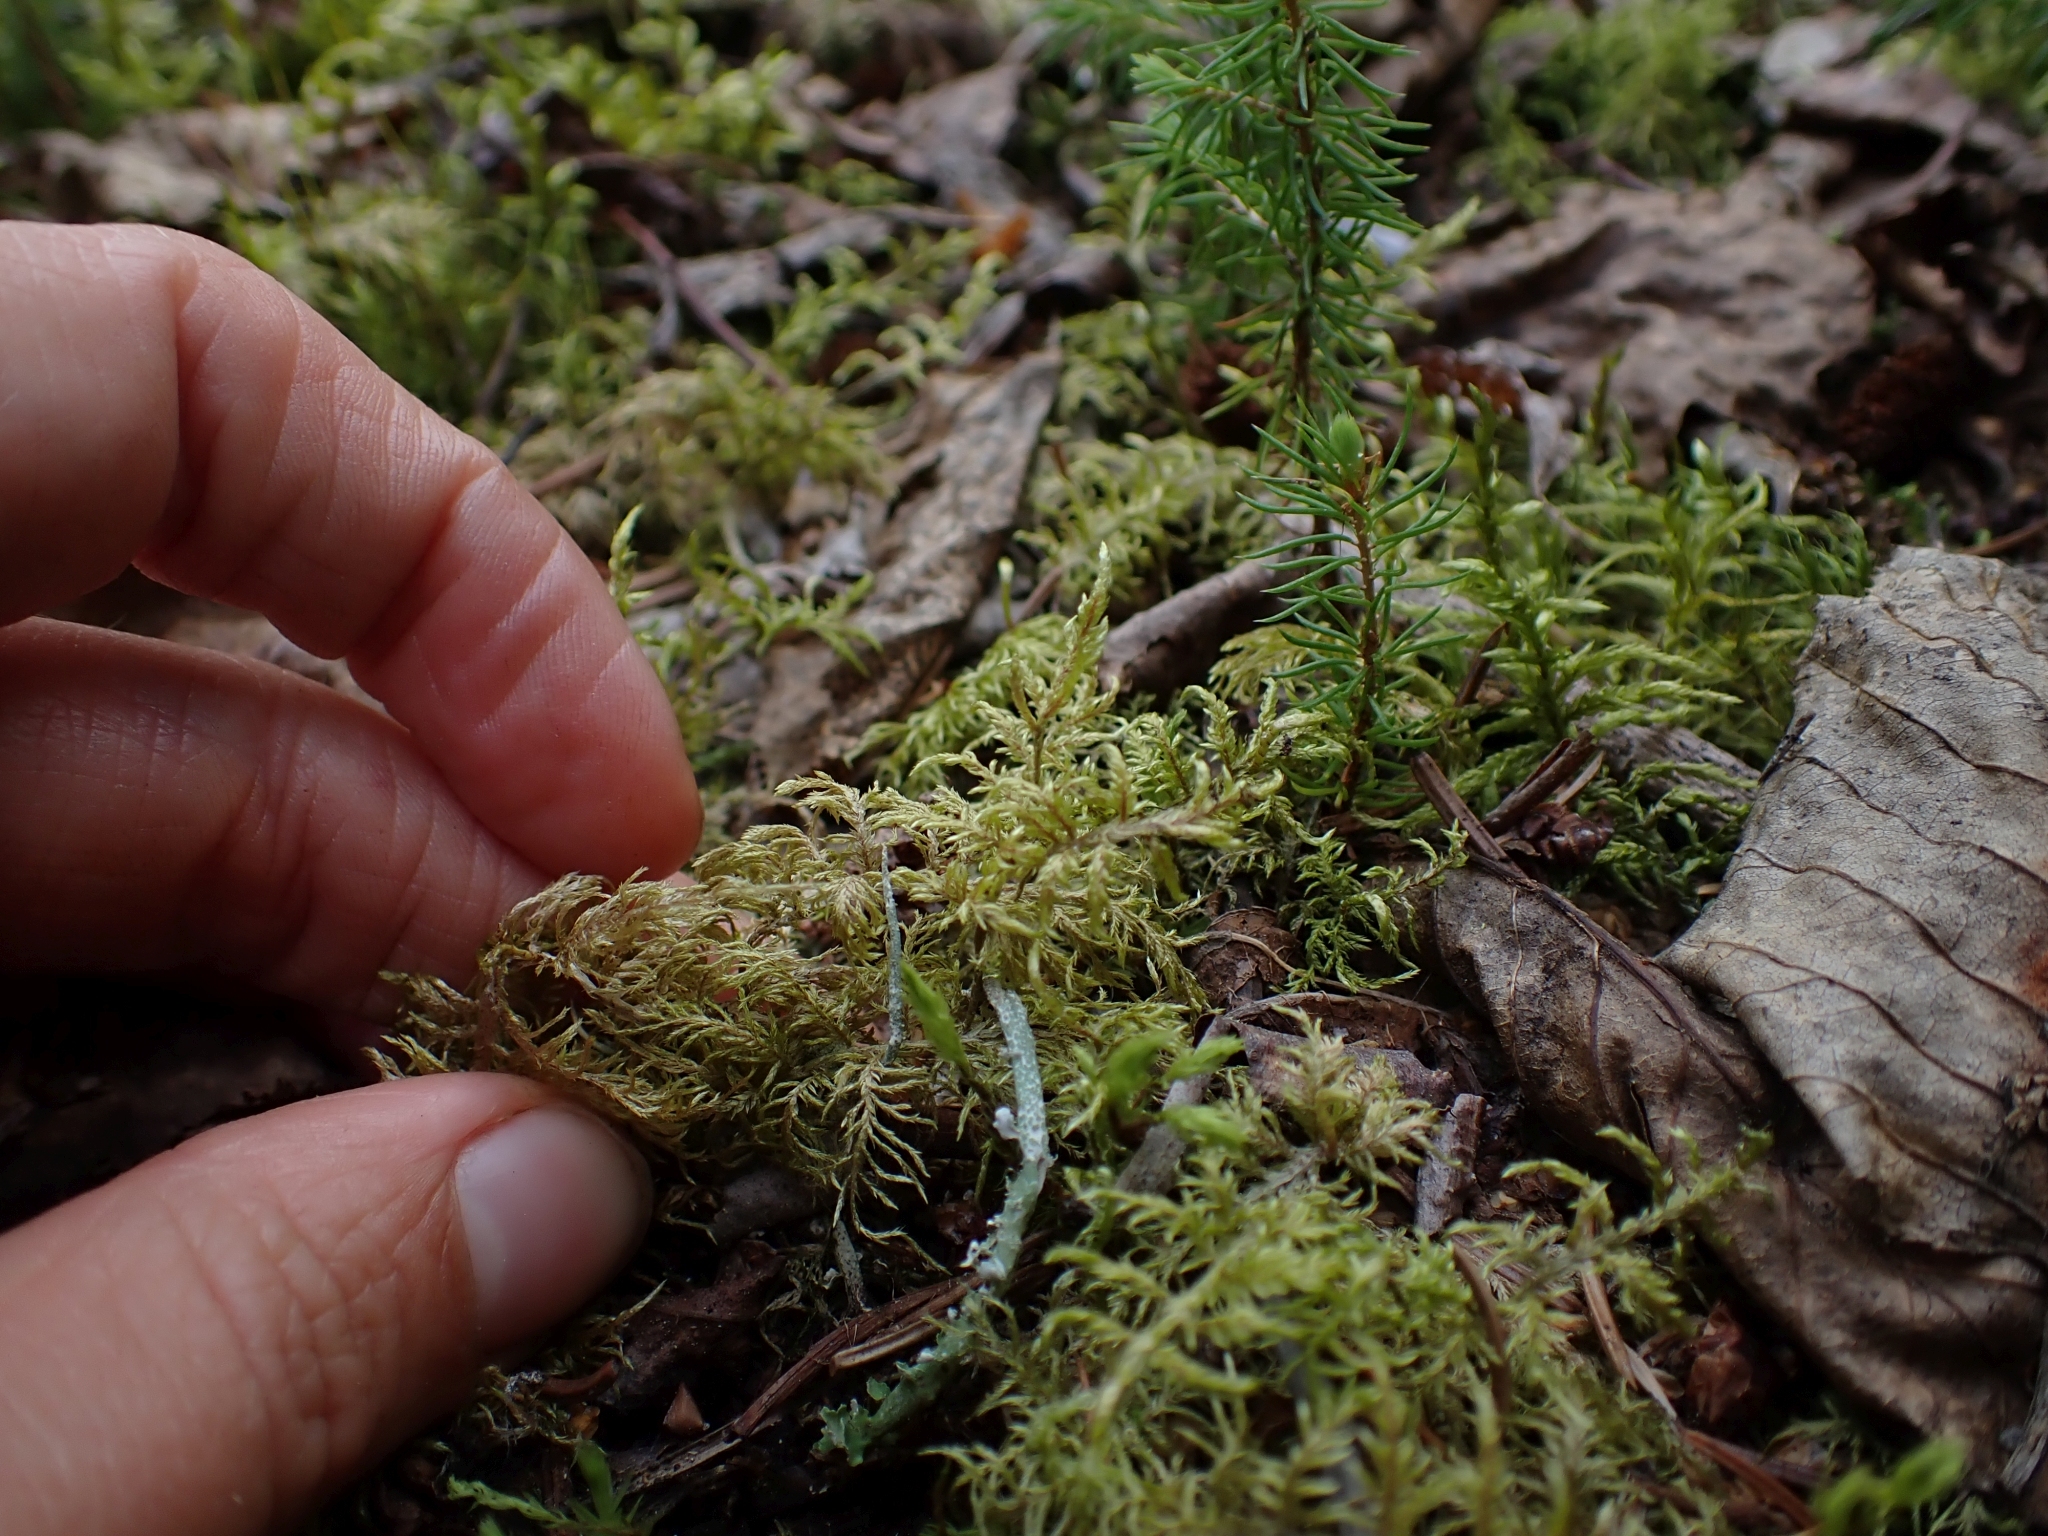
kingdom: Plantae
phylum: Bryophyta
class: Bryopsida
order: Hypnales
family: Hylocomiaceae
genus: Hylocomium
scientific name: Hylocomium splendens
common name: Stairstep moss
